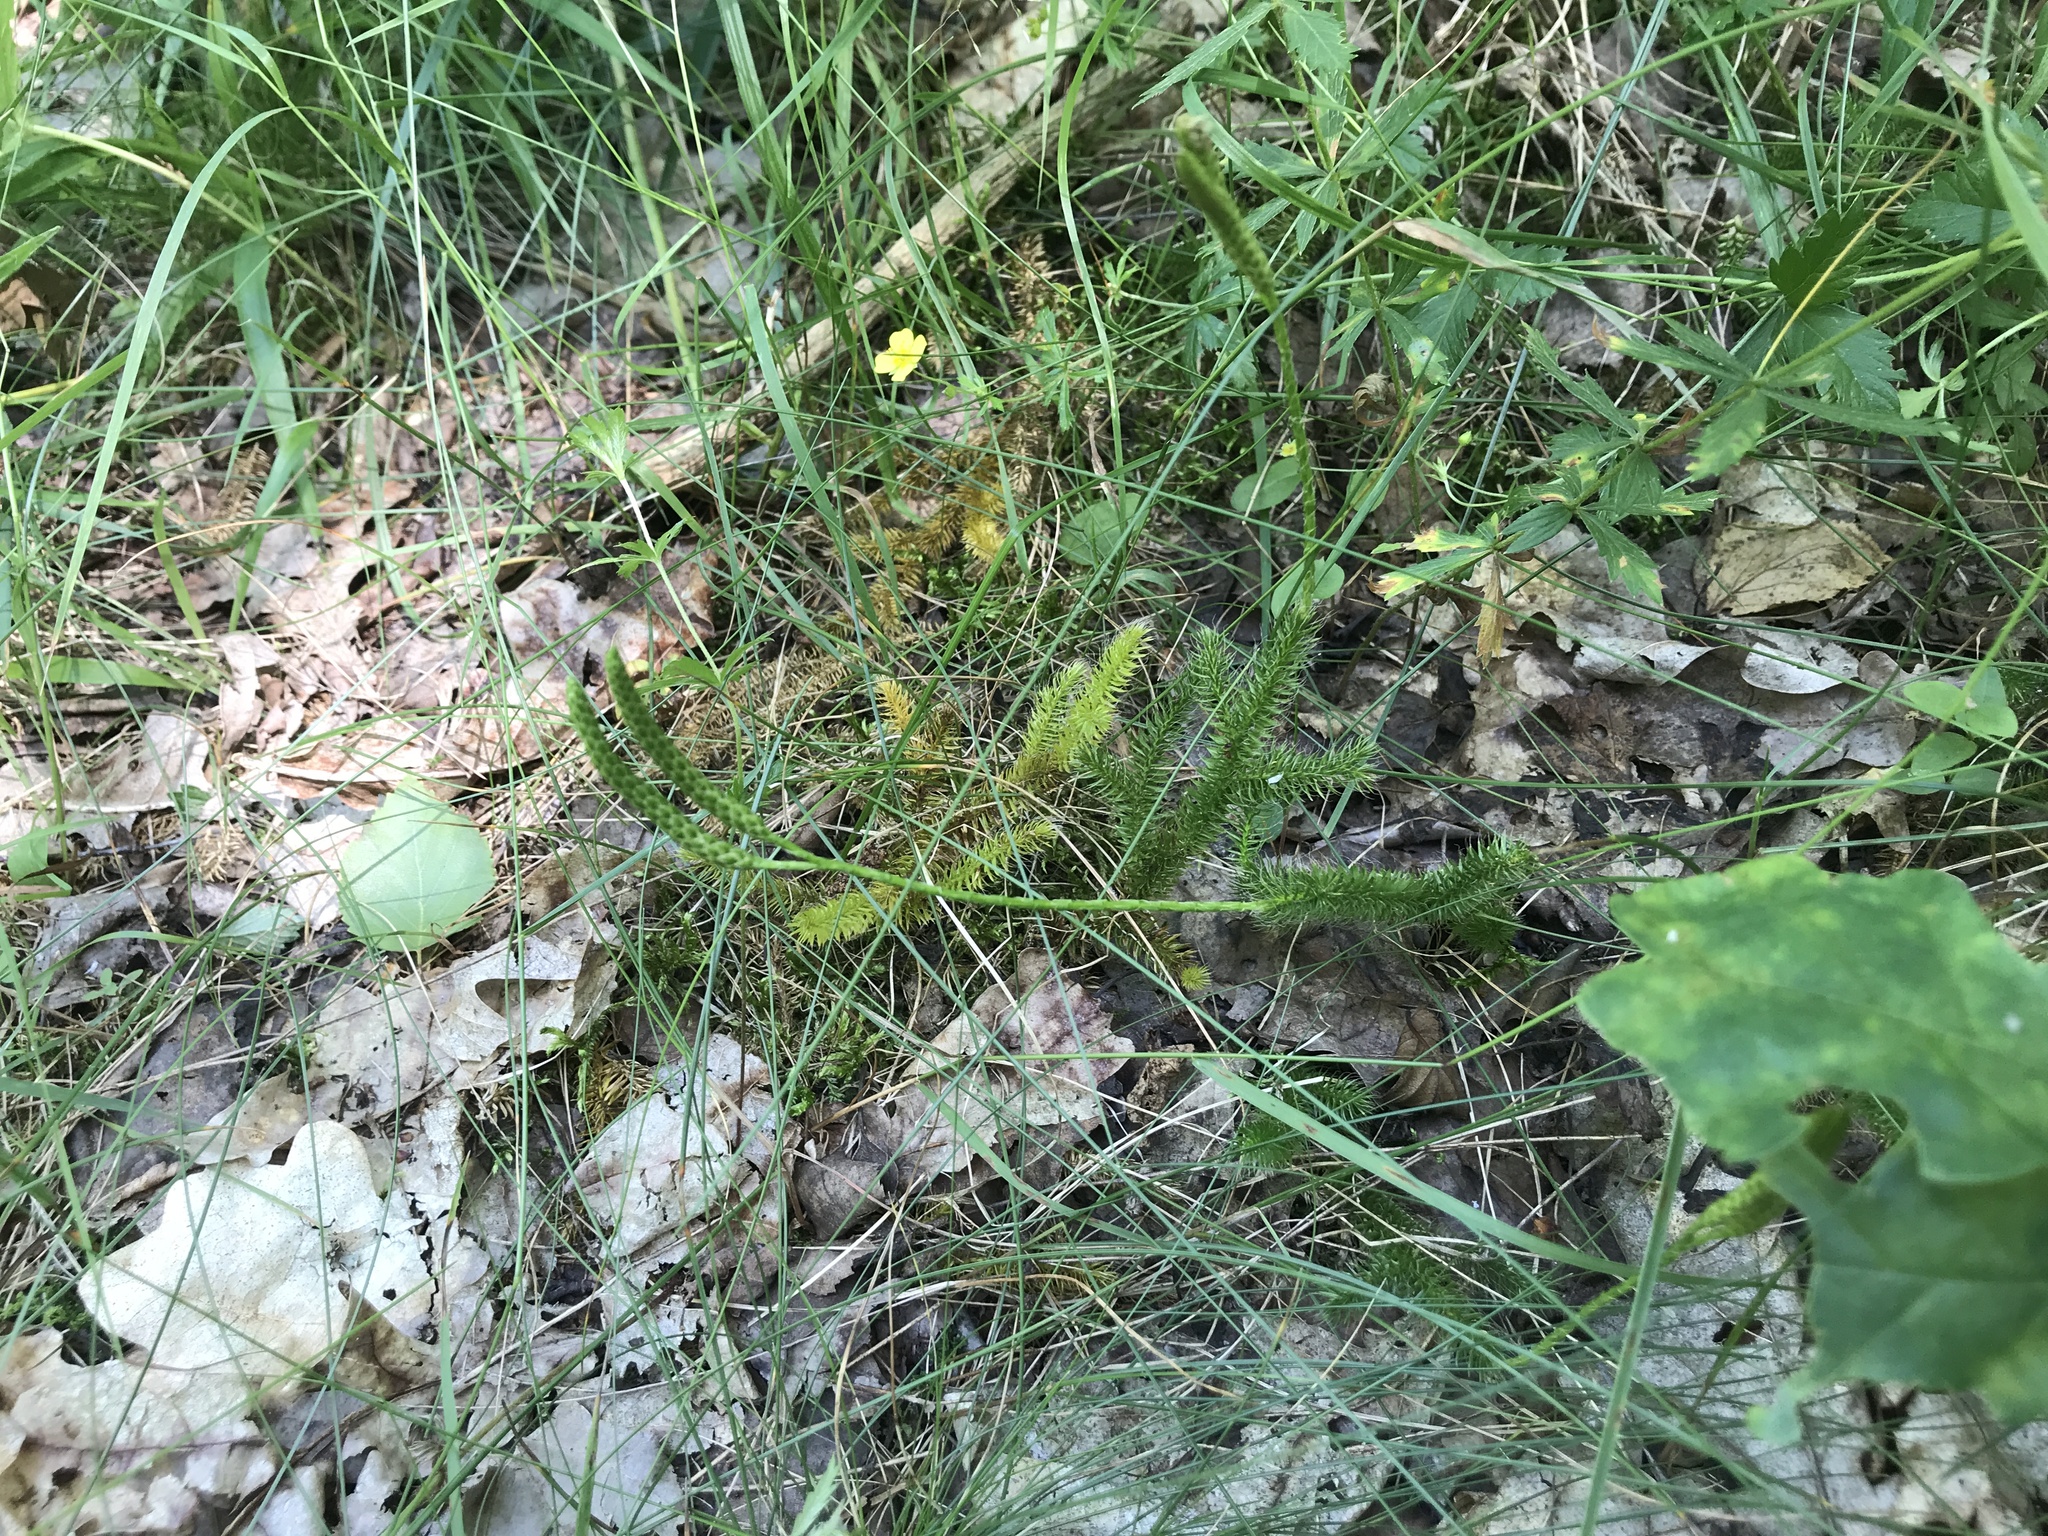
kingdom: Plantae
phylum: Tracheophyta
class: Lycopodiopsida
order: Lycopodiales
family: Lycopodiaceae
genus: Lycopodium
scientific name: Lycopodium clavatum
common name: Stag's-horn clubmoss
